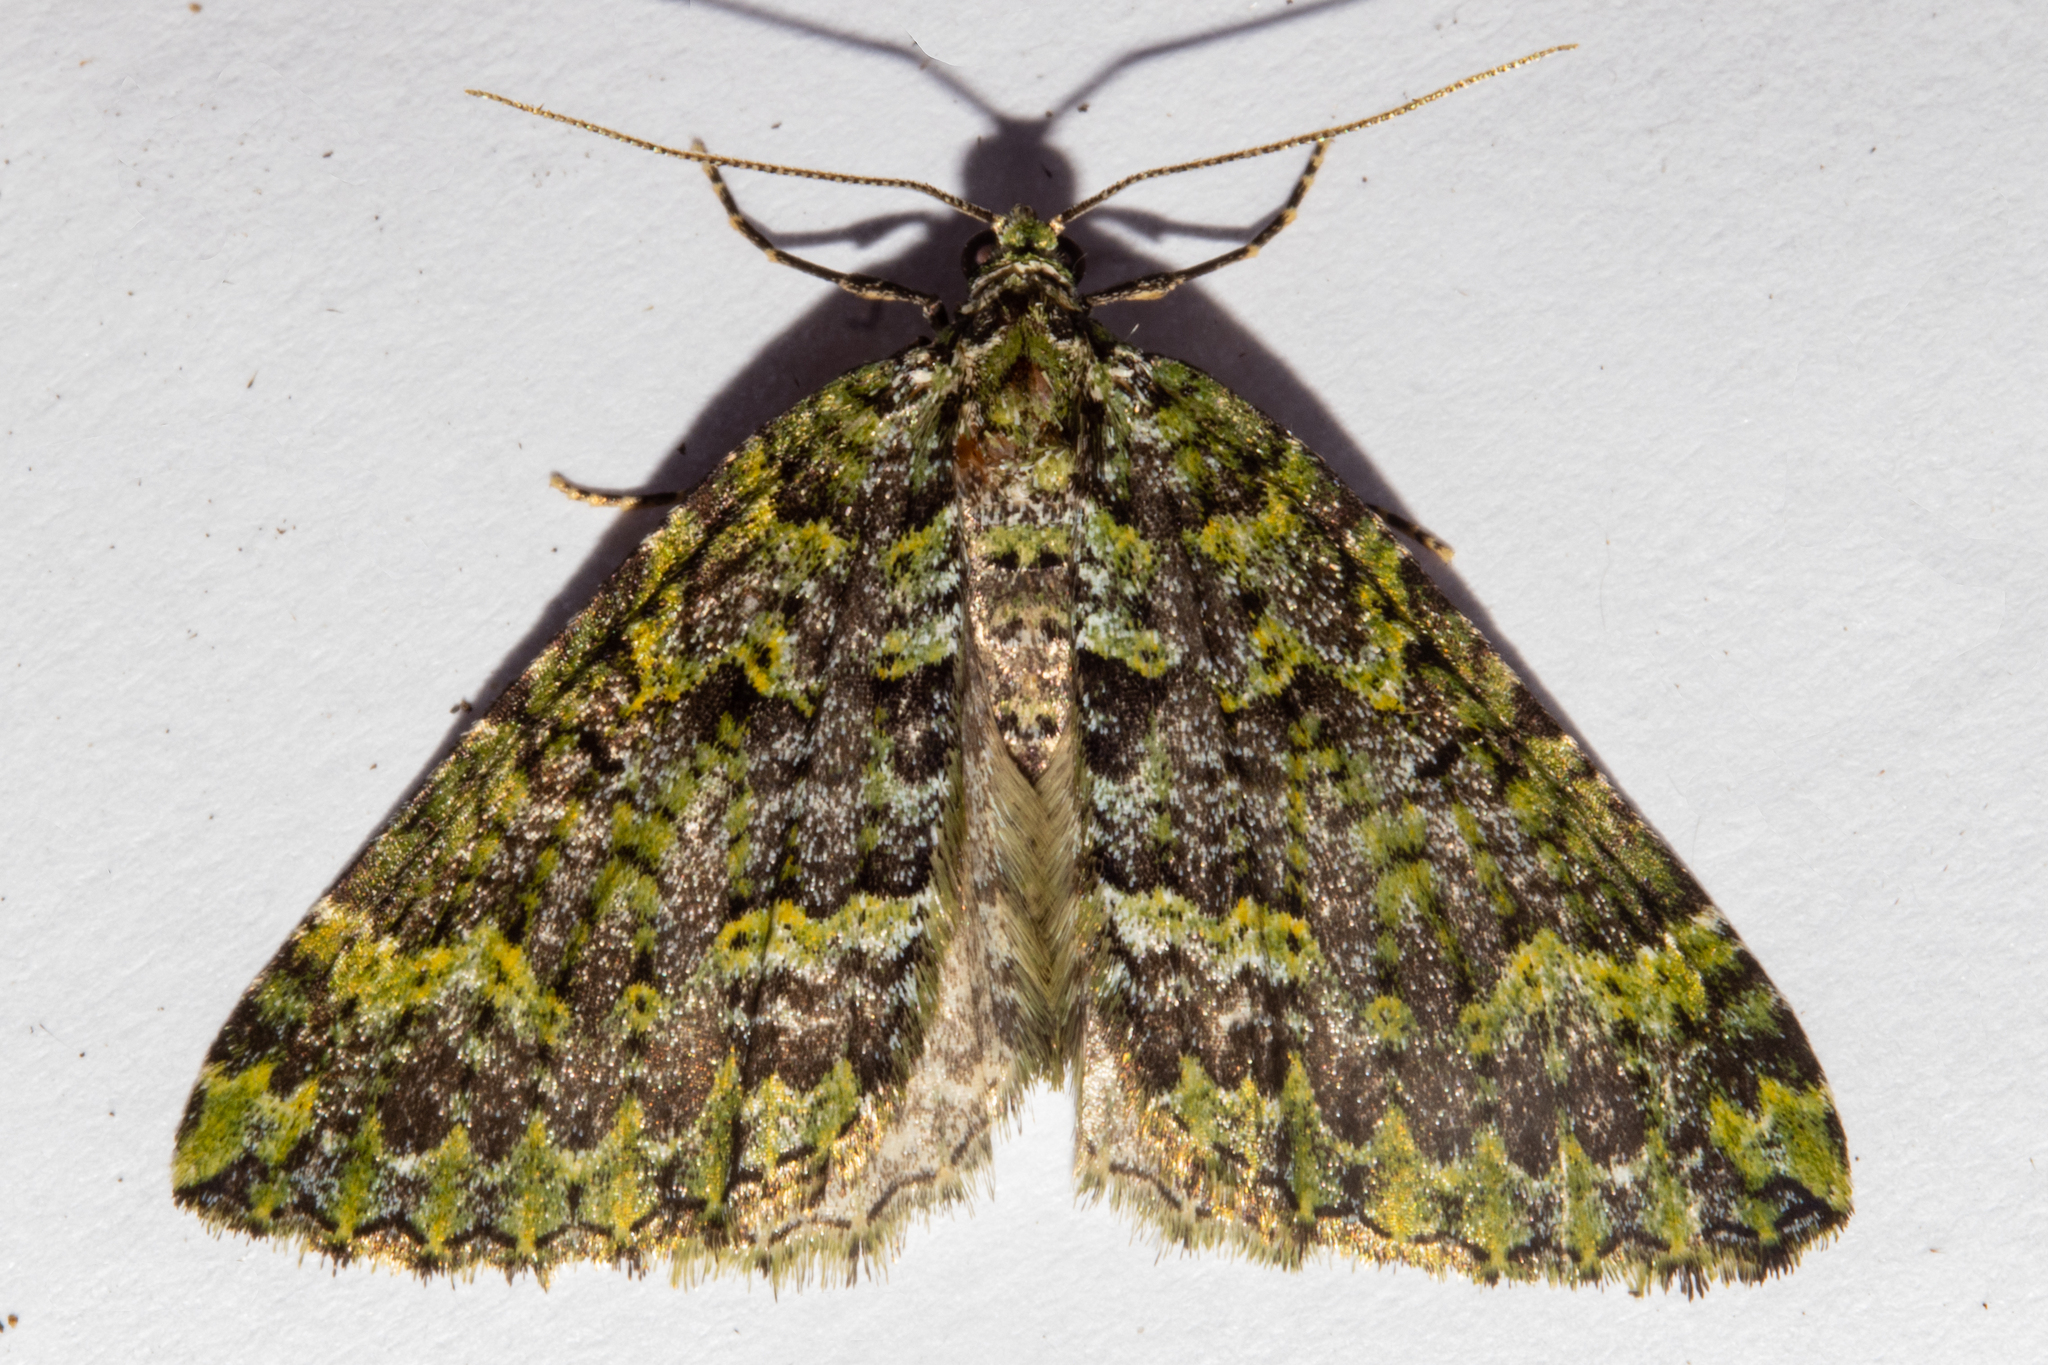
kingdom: Animalia
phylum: Arthropoda
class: Insecta
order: Lepidoptera
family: Geometridae
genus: Austrocidaria
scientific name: Austrocidaria callichlora
